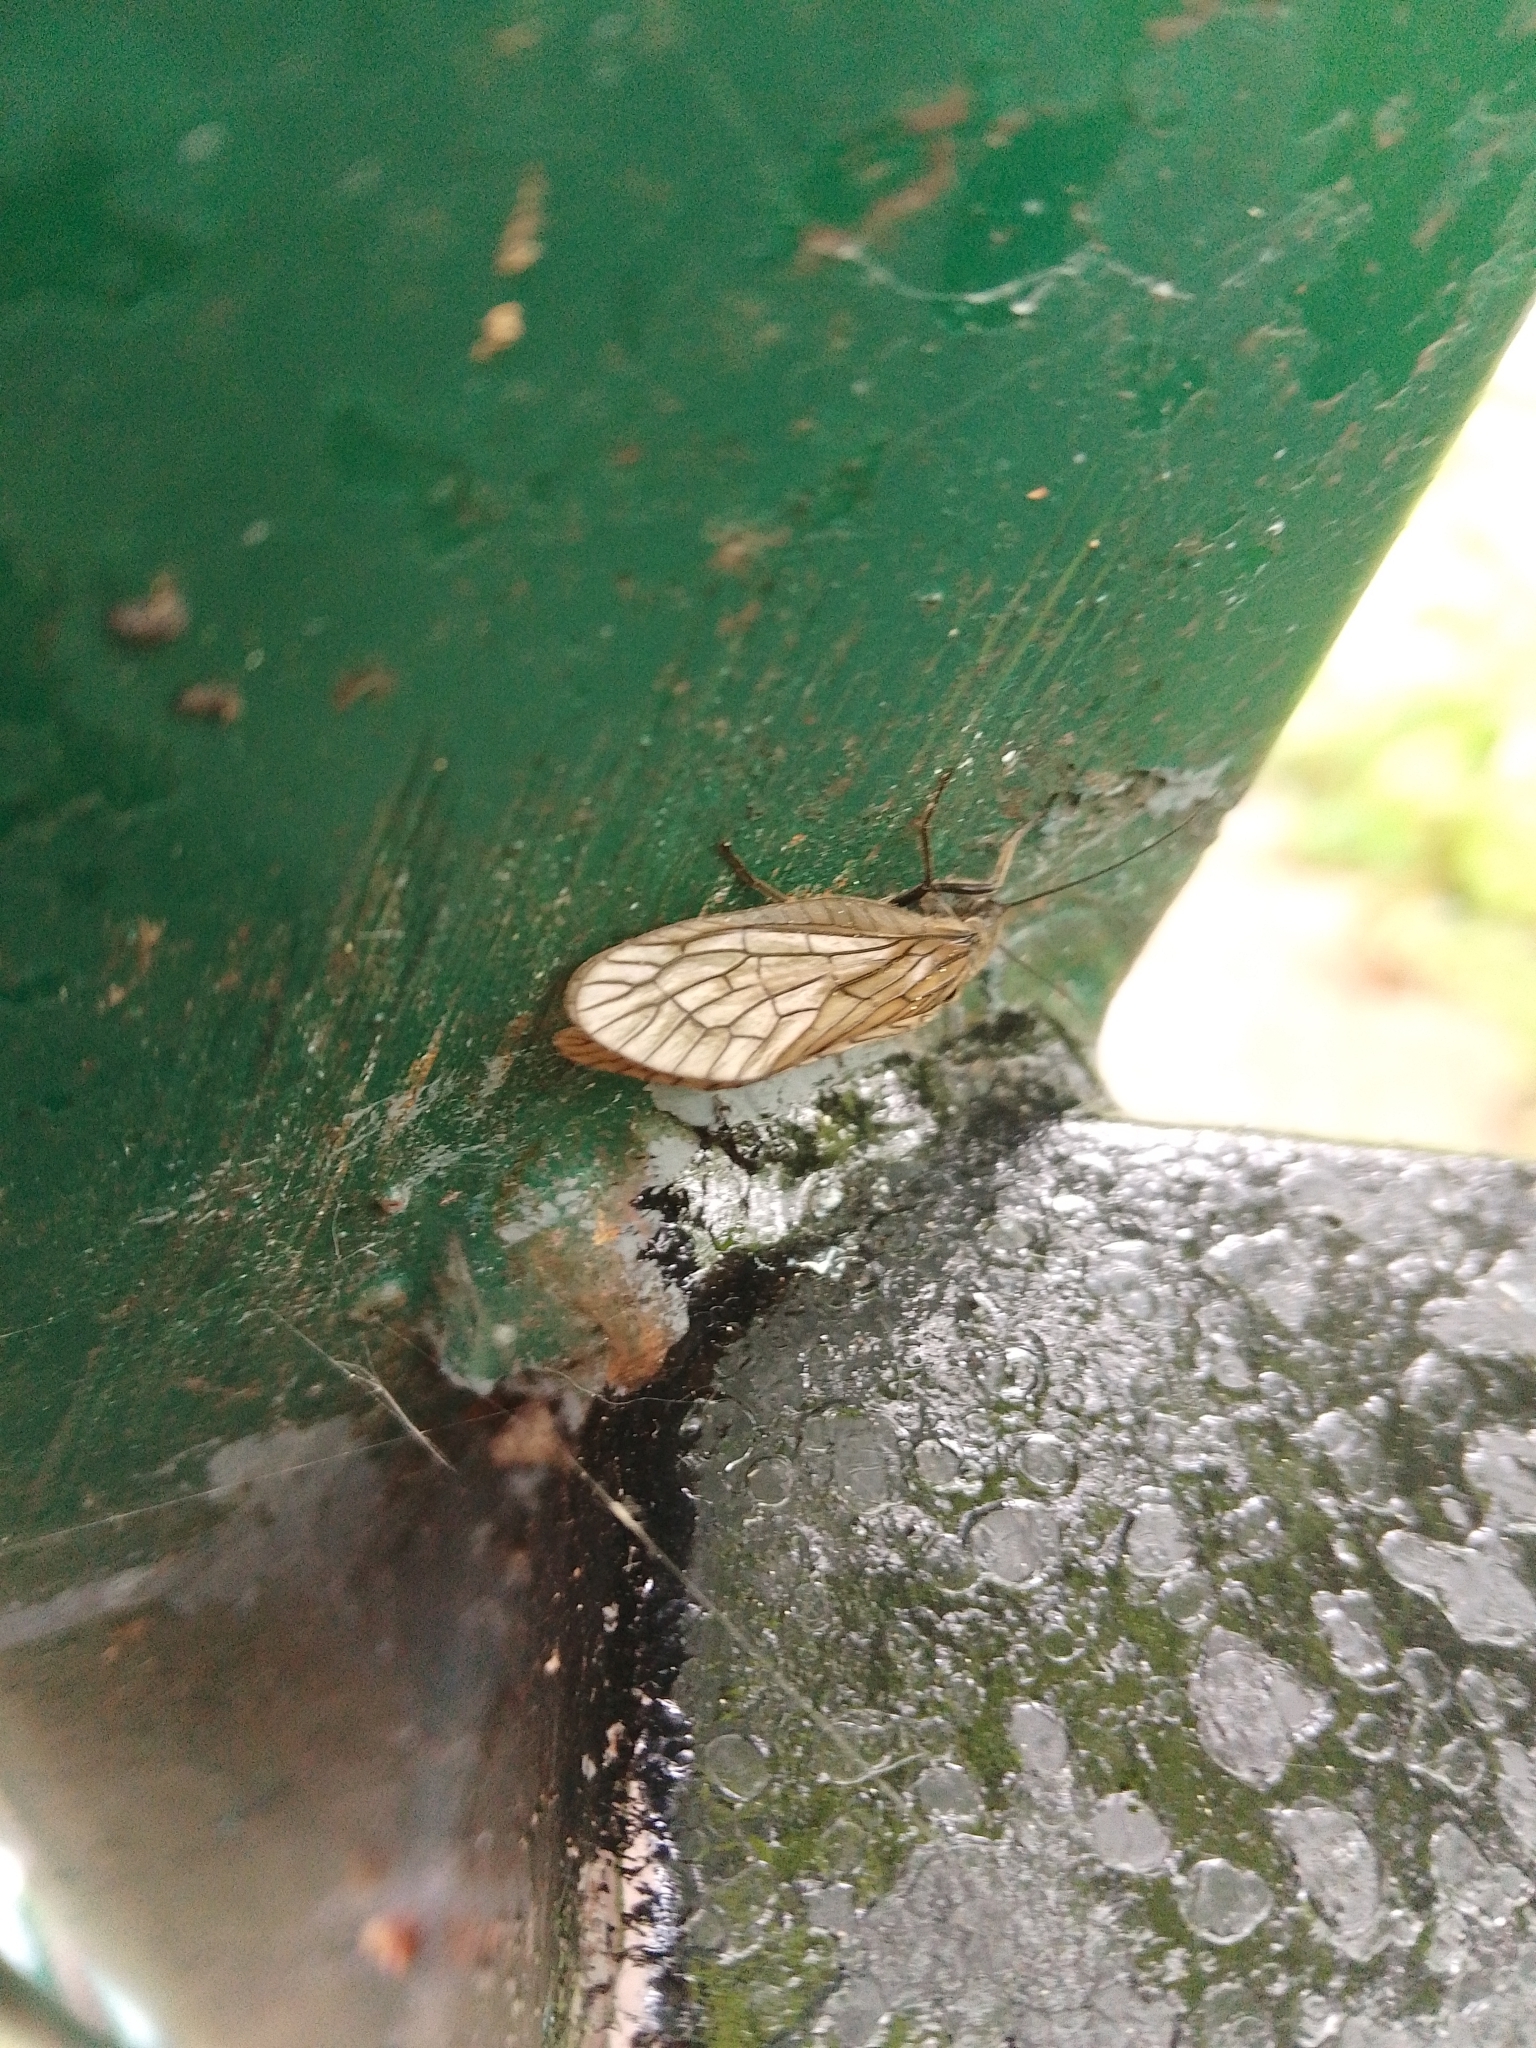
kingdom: Animalia
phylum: Arthropoda
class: Insecta
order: Megaloptera
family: Sialidae
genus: Sialis
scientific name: Sialis
